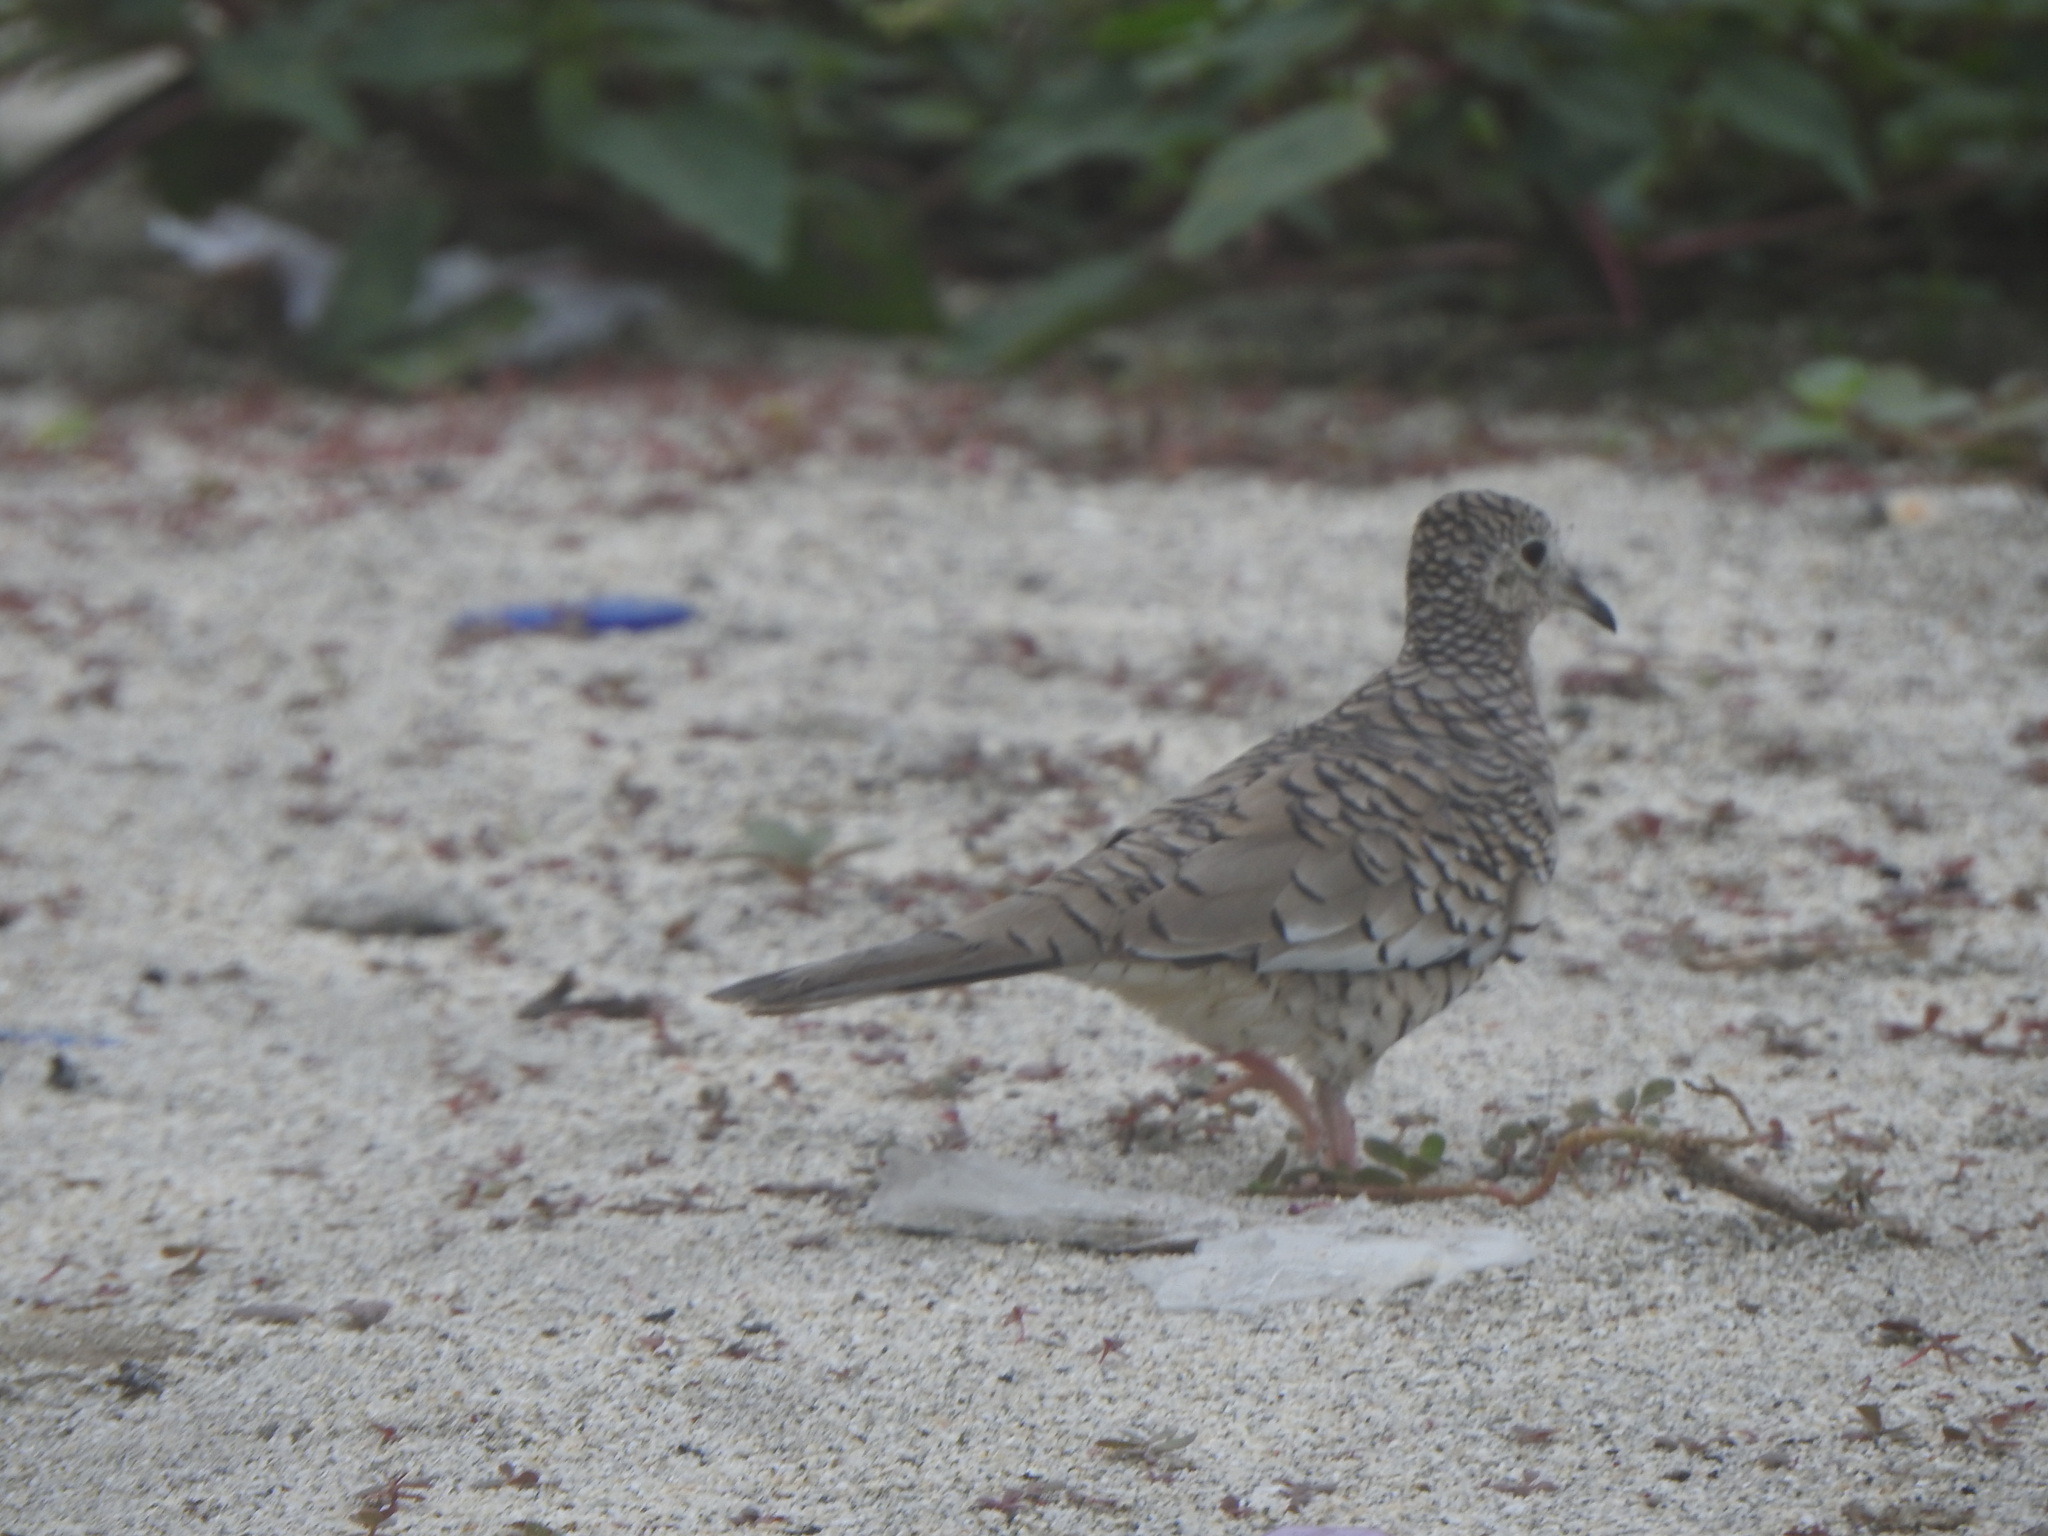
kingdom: Animalia
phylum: Chordata
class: Aves
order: Columbiformes
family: Columbidae
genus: Columbina
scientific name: Columbina squammata
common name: Scaled dove
